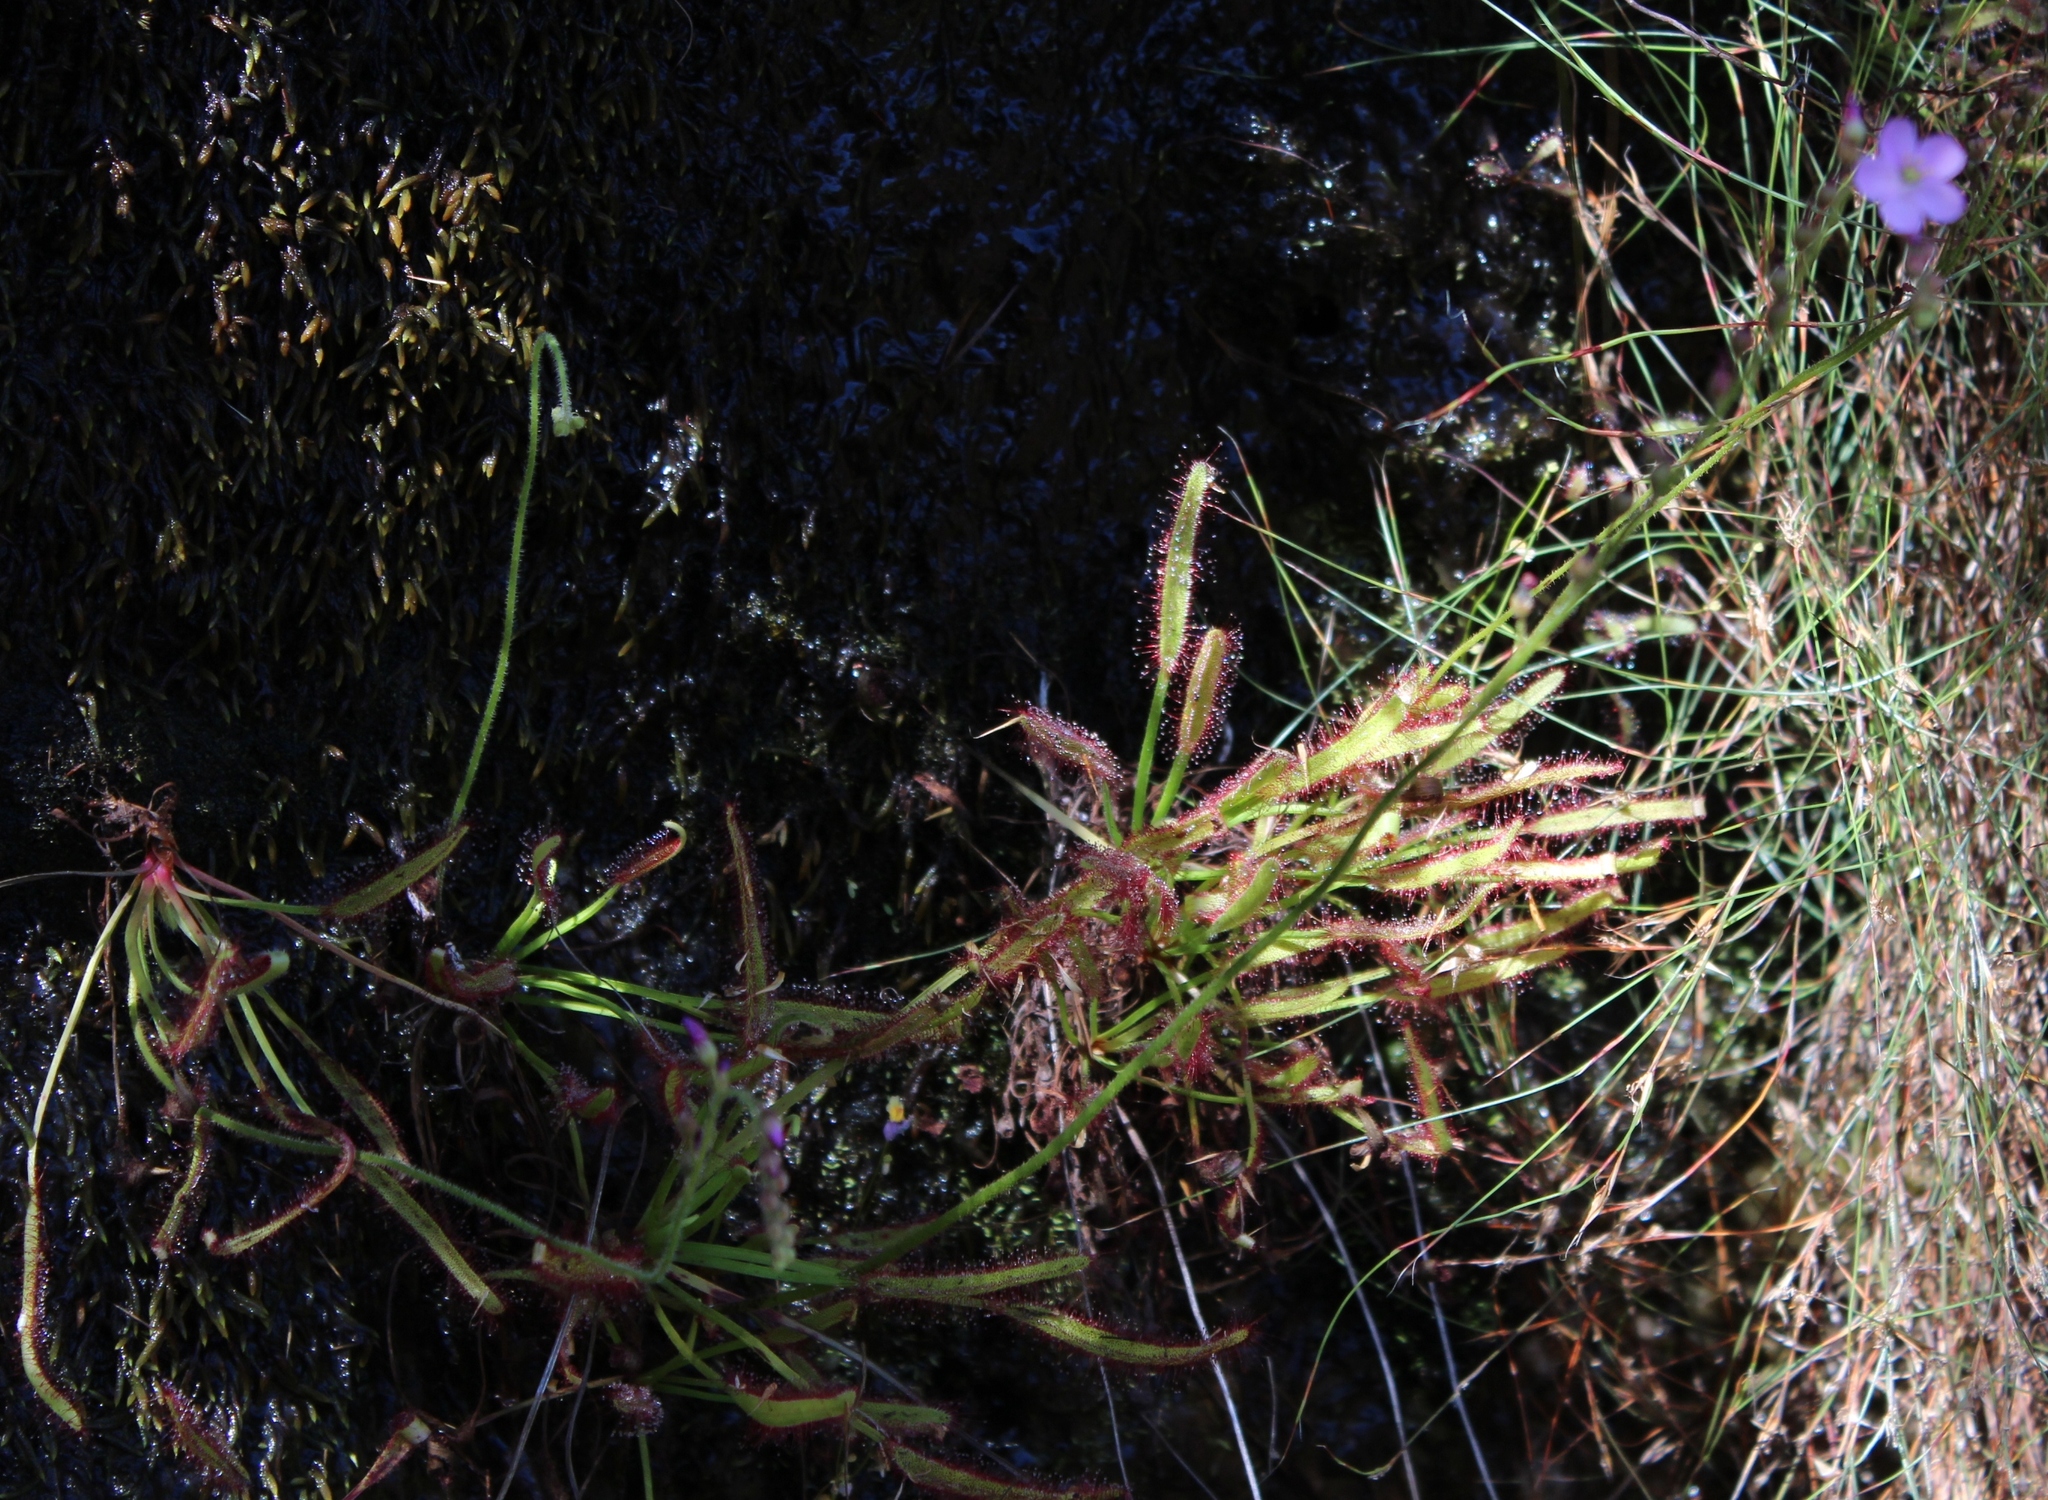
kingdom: Plantae
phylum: Tracheophyta
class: Magnoliopsida
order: Caryophyllales
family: Droseraceae
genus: Drosera
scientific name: Drosera capensis
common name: Cape sundew
